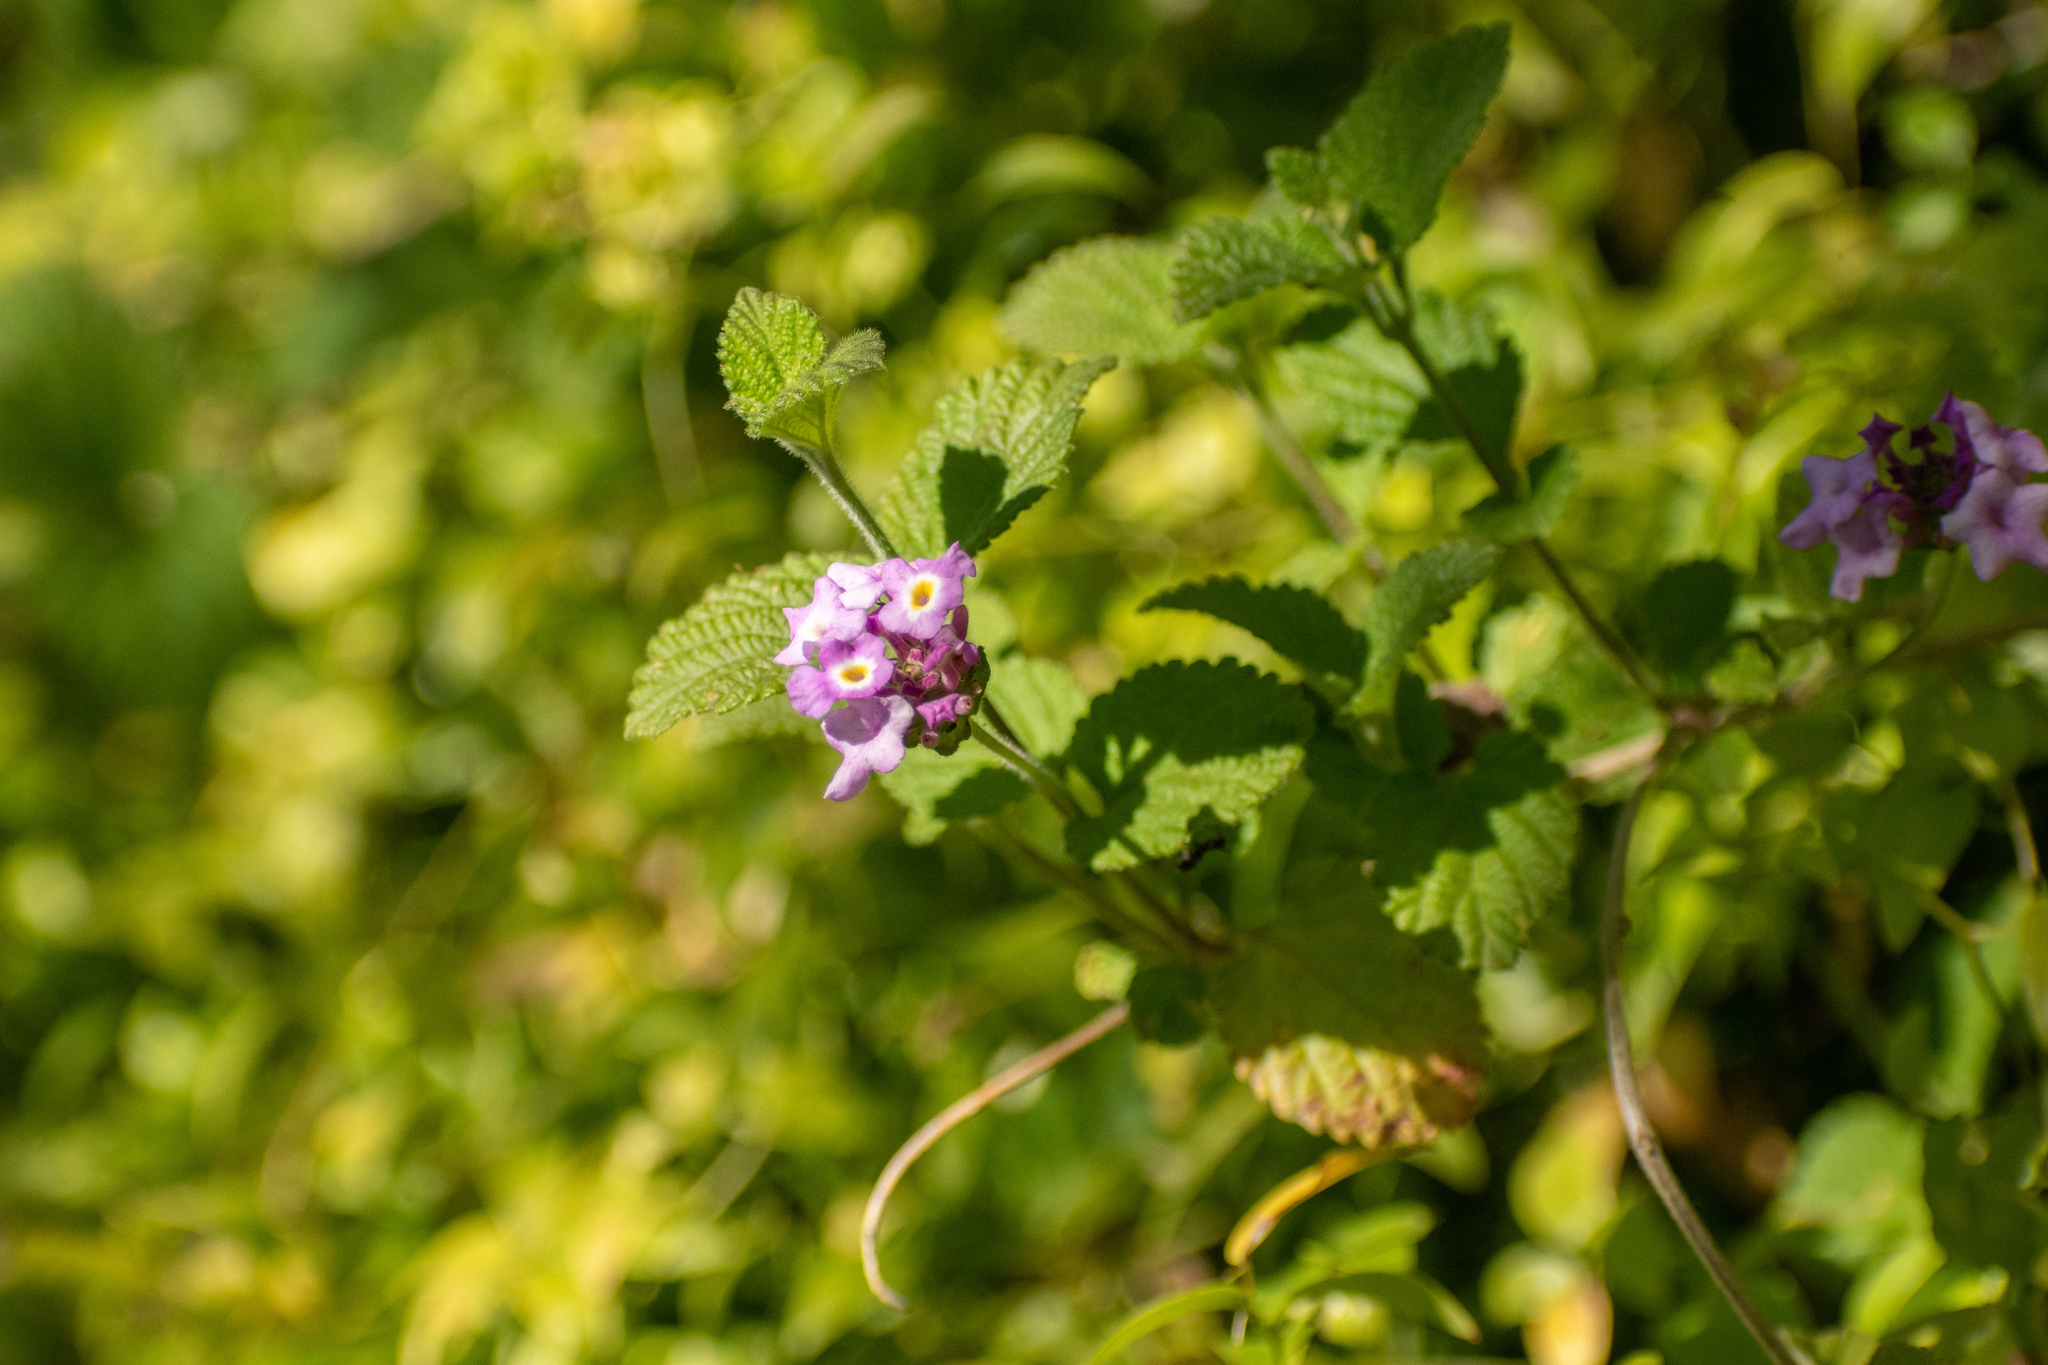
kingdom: Plantae
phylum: Tracheophyta
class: Magnoliopsida
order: Lamiales
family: Verbenaceae
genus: Lantana
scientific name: Lantana megapotamica
